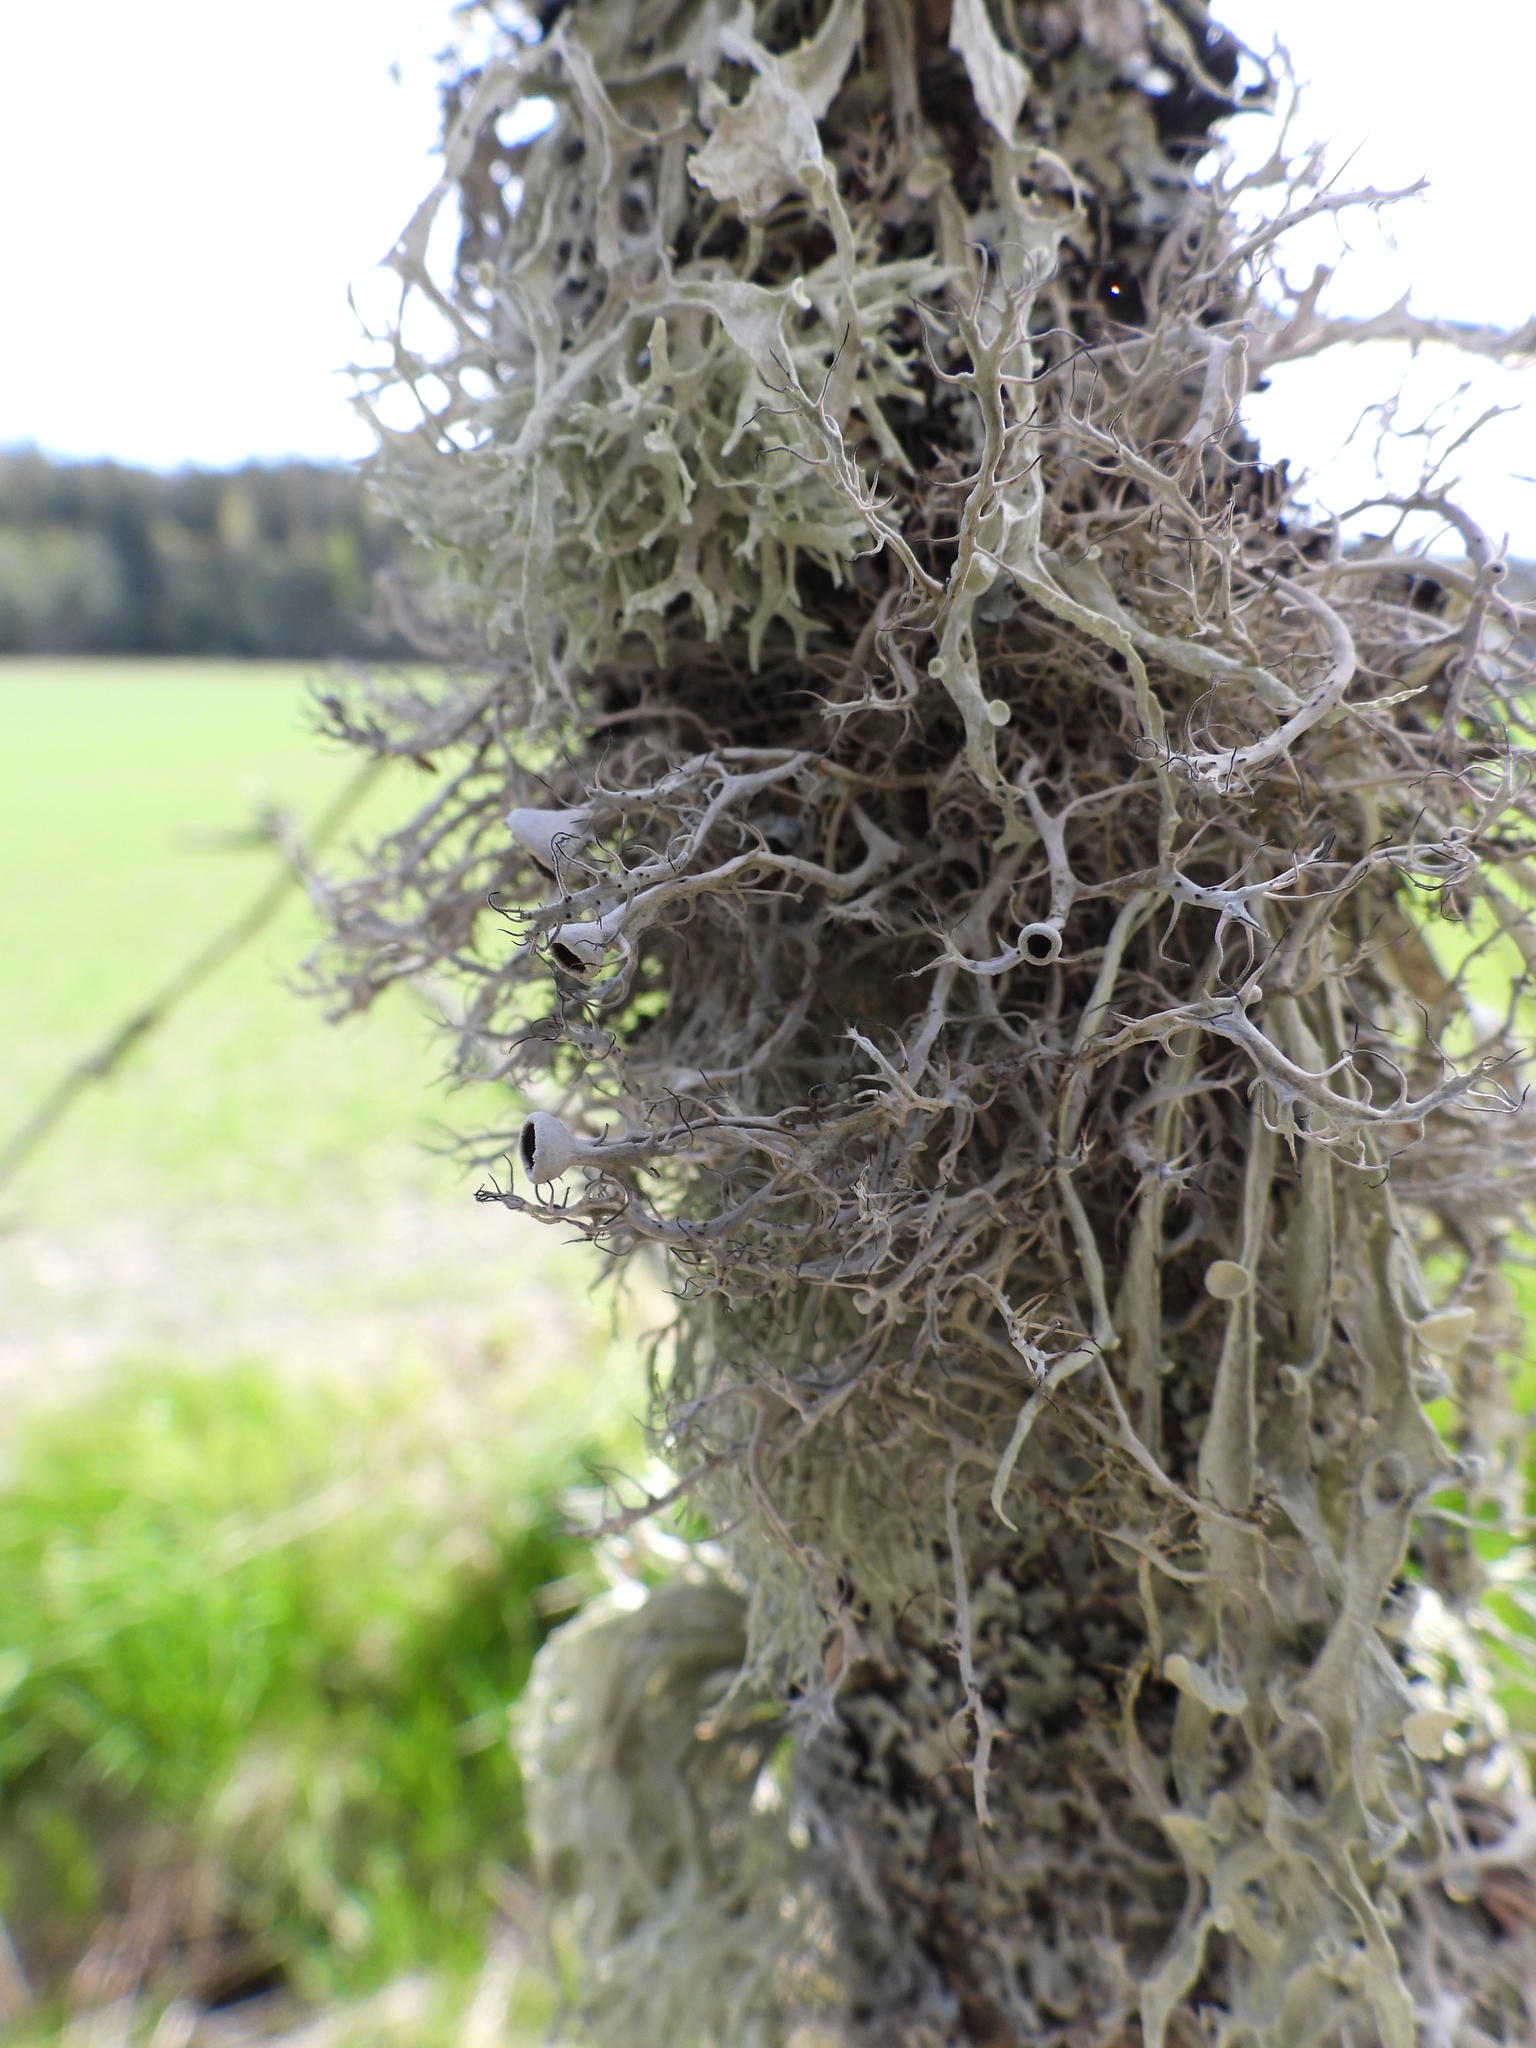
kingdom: Fungi
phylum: Ascomycota
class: Lecanoromycetes
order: Caliciales
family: Physciaceae
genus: Anaptychia
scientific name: Anaptychia ciliaris
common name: Great ciliated lichen
